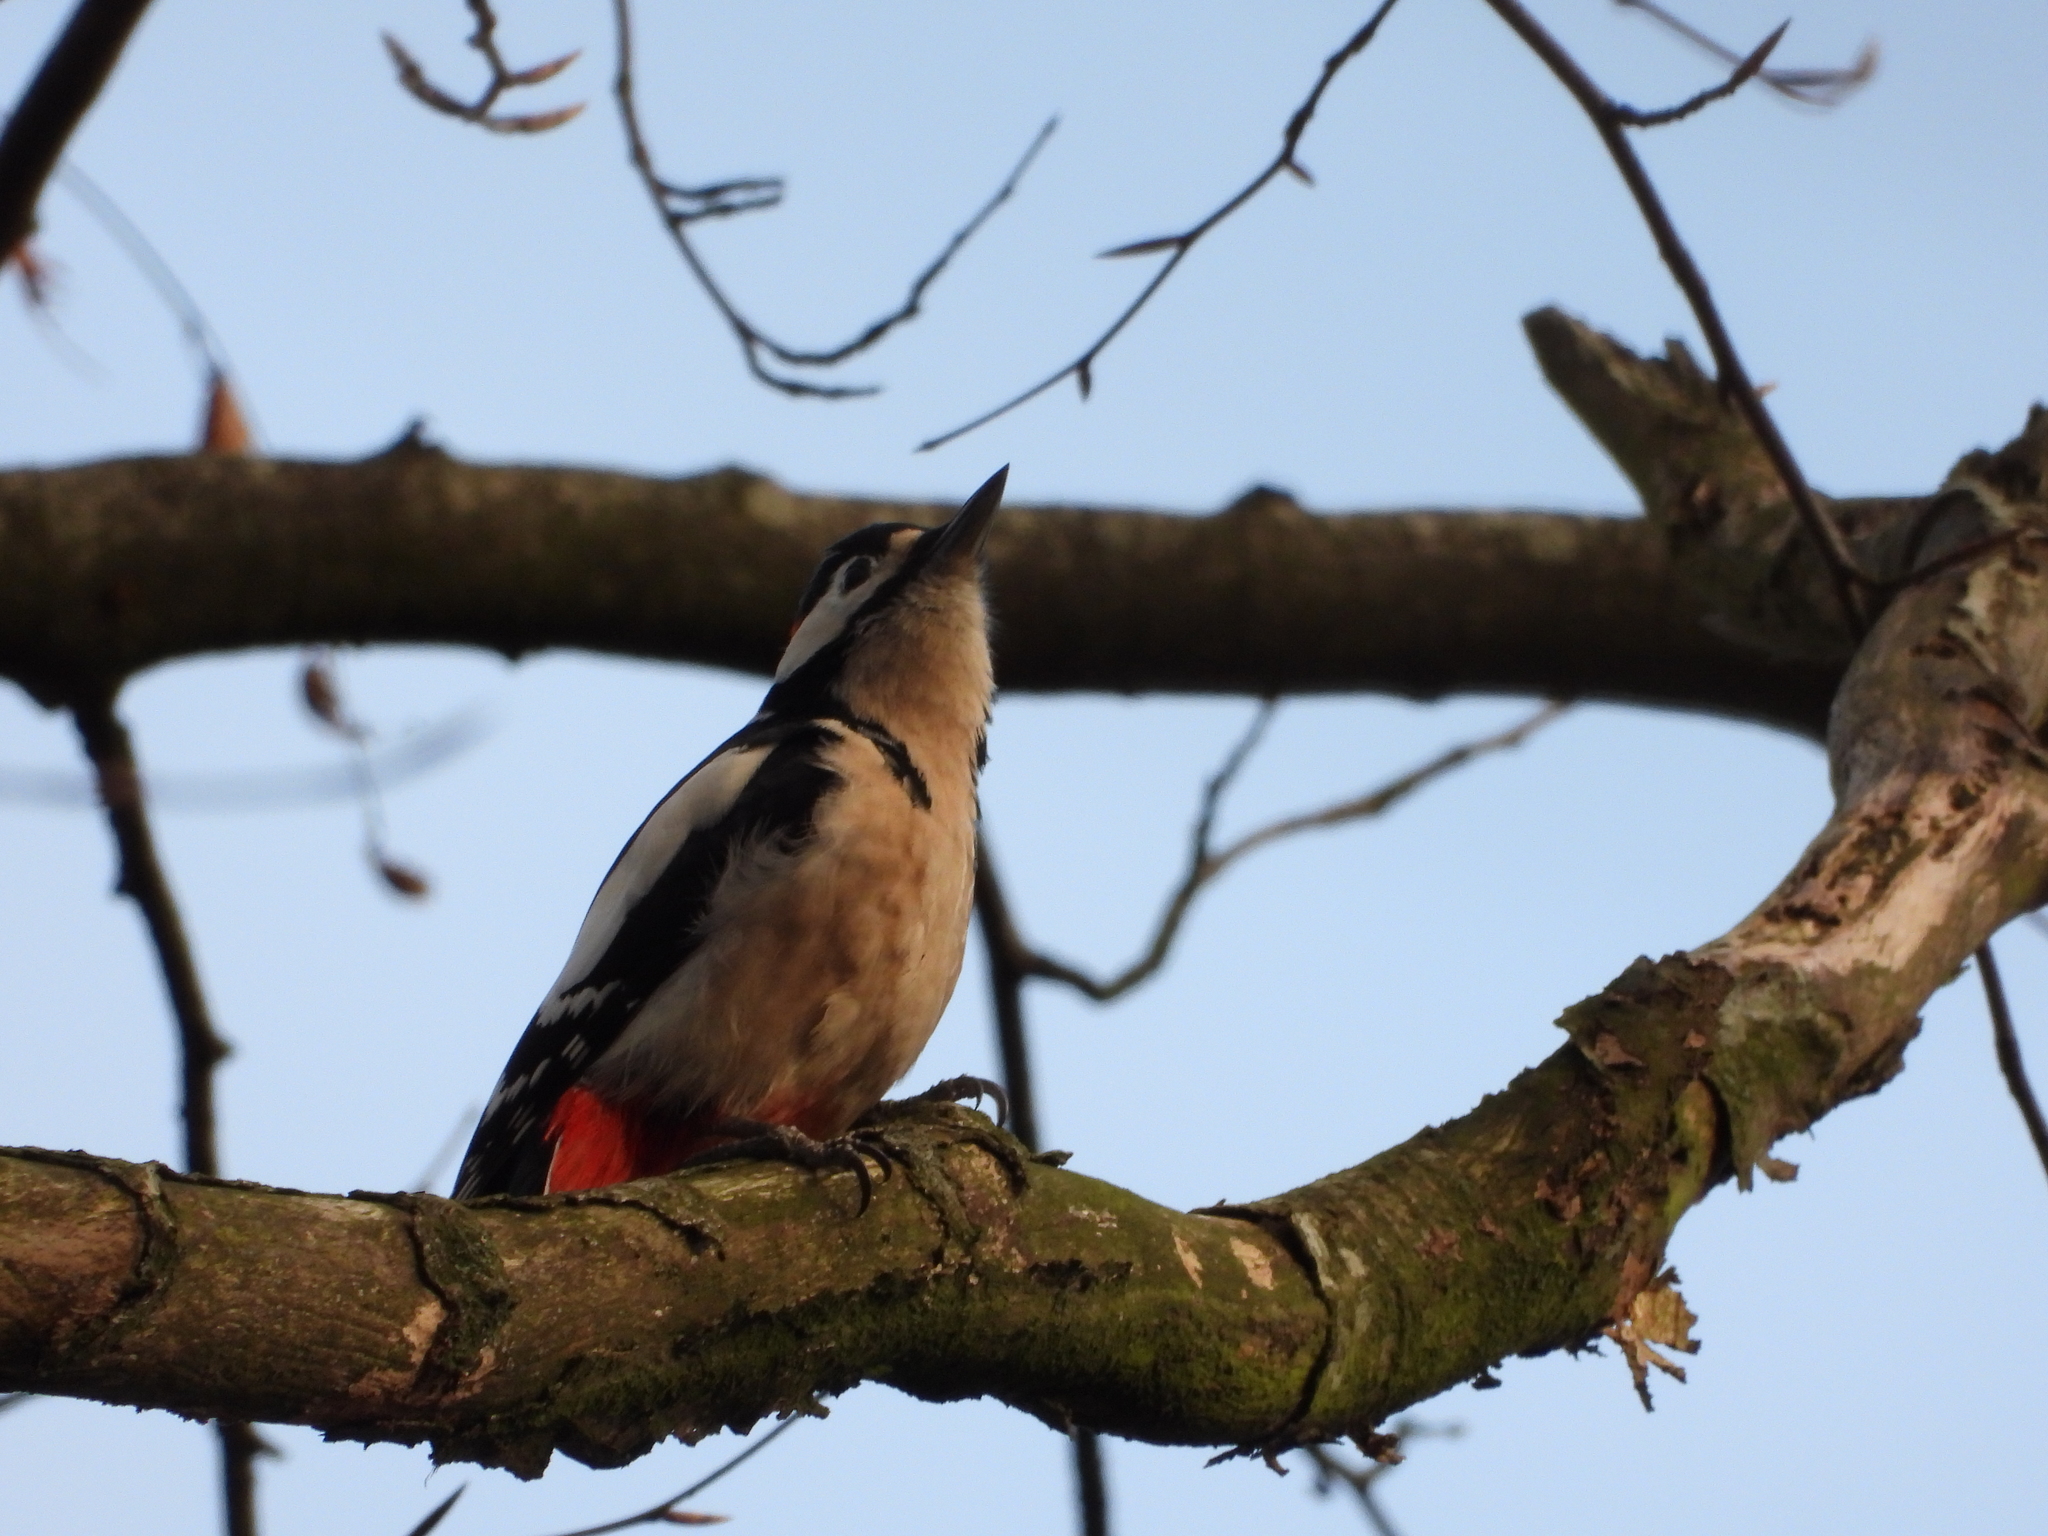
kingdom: Animalia
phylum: Chordata
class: Aves
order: Piciformes
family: Picidae
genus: Dendrocopos
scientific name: Dendrocopos major
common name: Great spotted woodpecker
